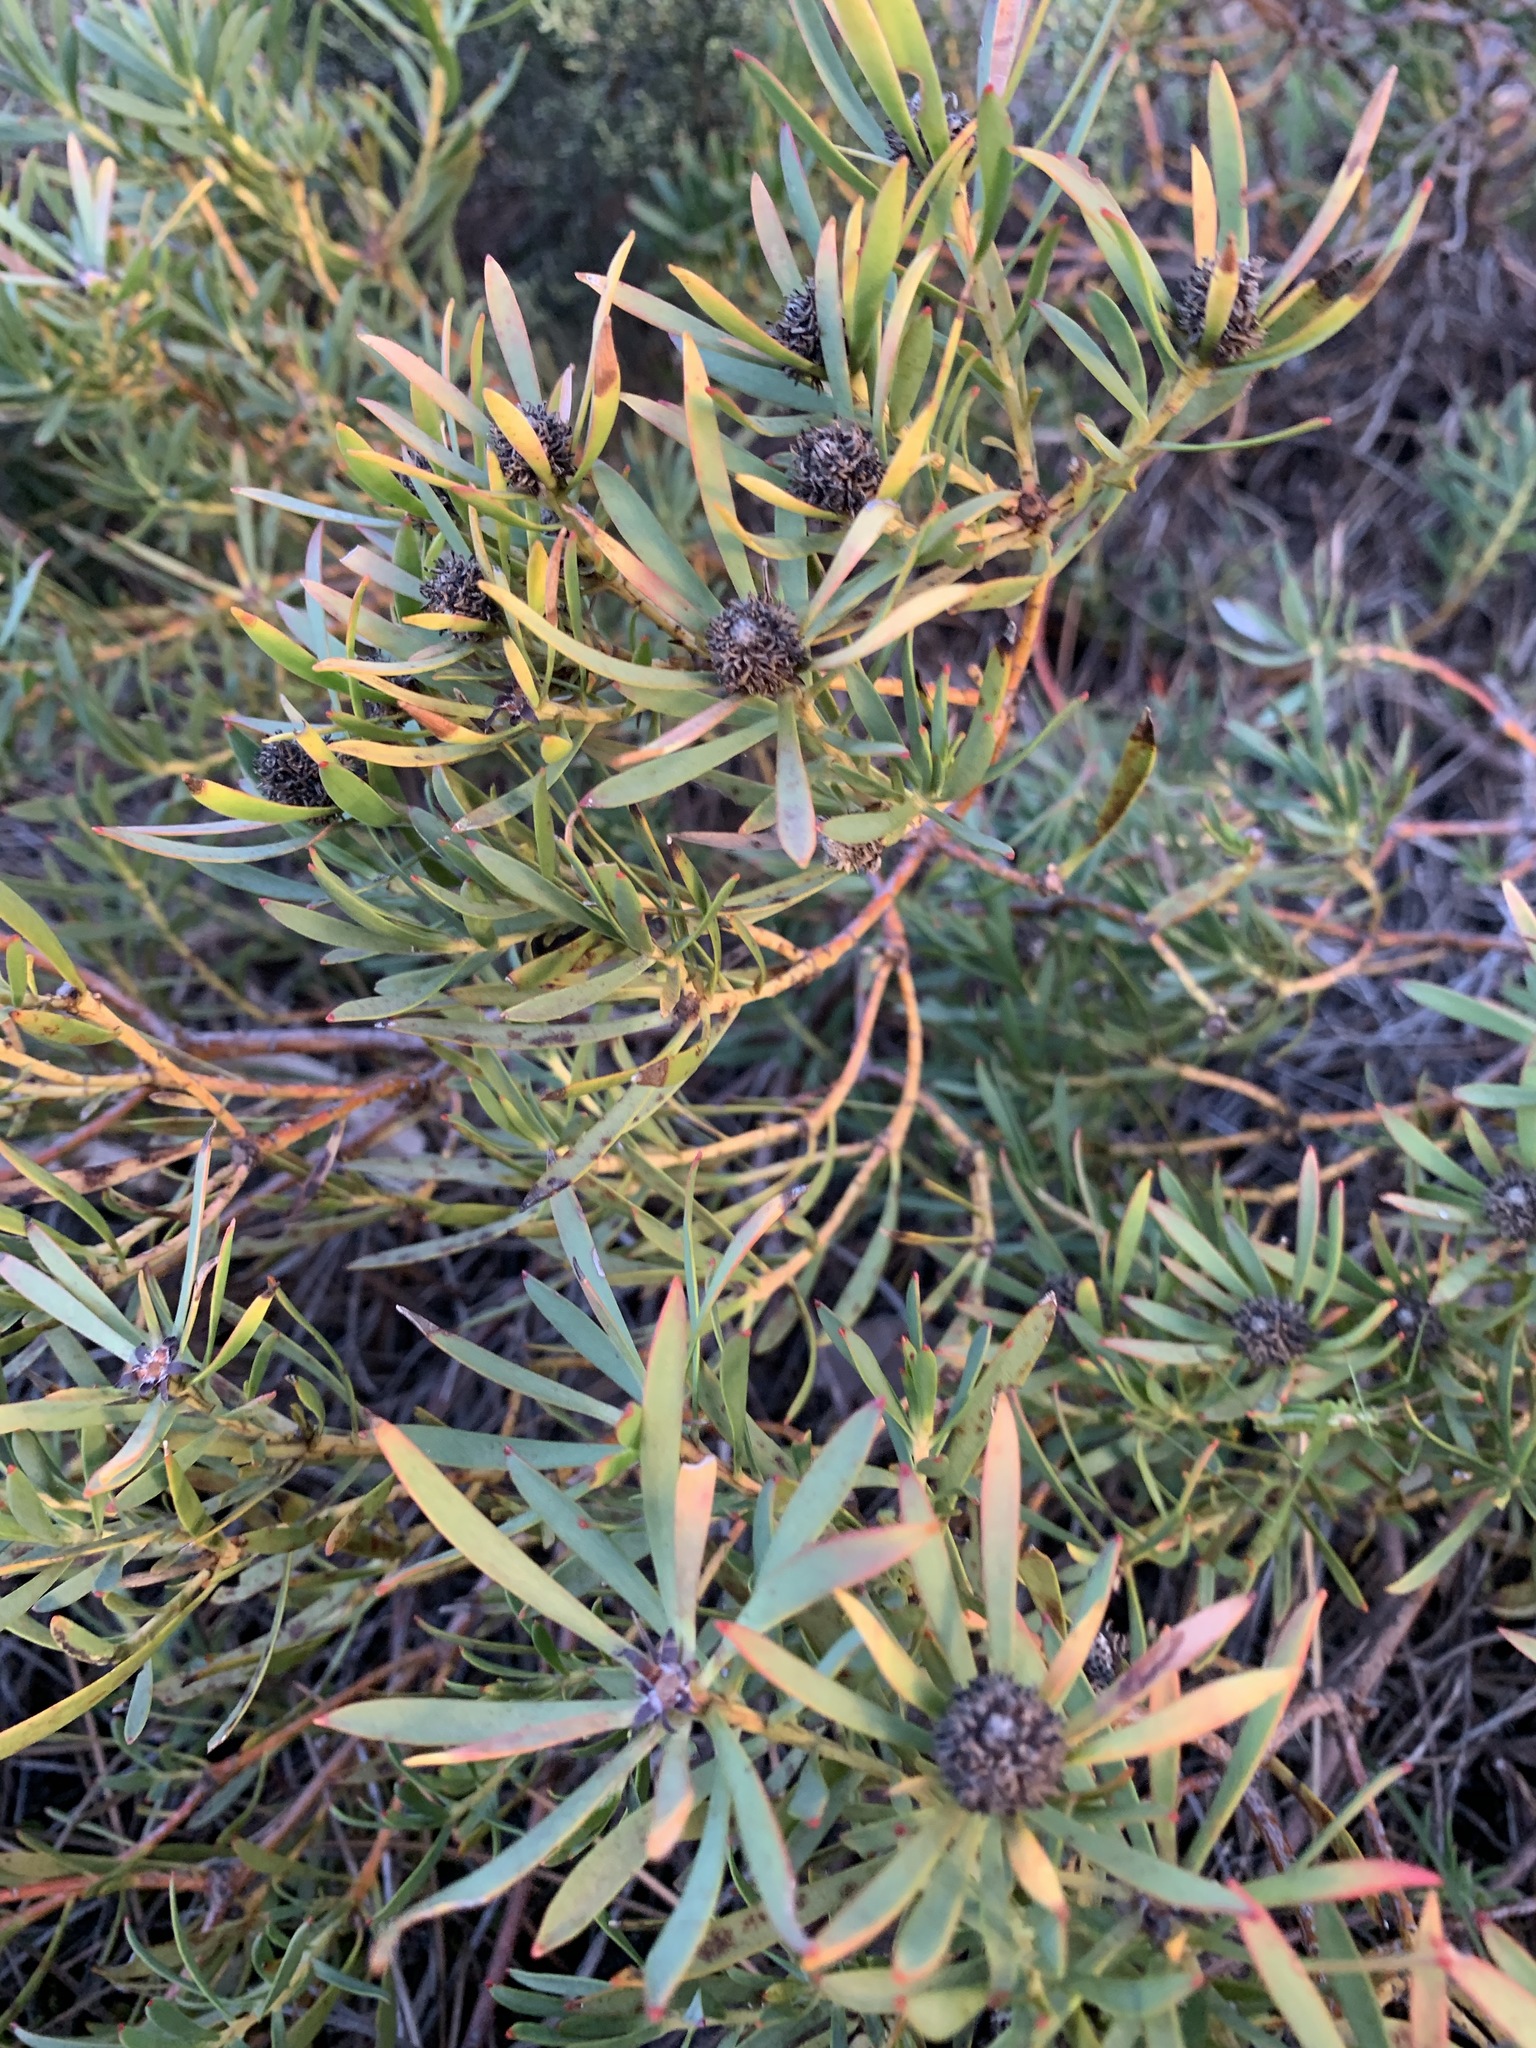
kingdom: Plantae
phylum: Tracheophyta
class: Magnoliopsida
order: Proteales
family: Proteaceae
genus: Leucadendron
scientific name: Leucadendron salignum
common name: Common sunshine conebush
